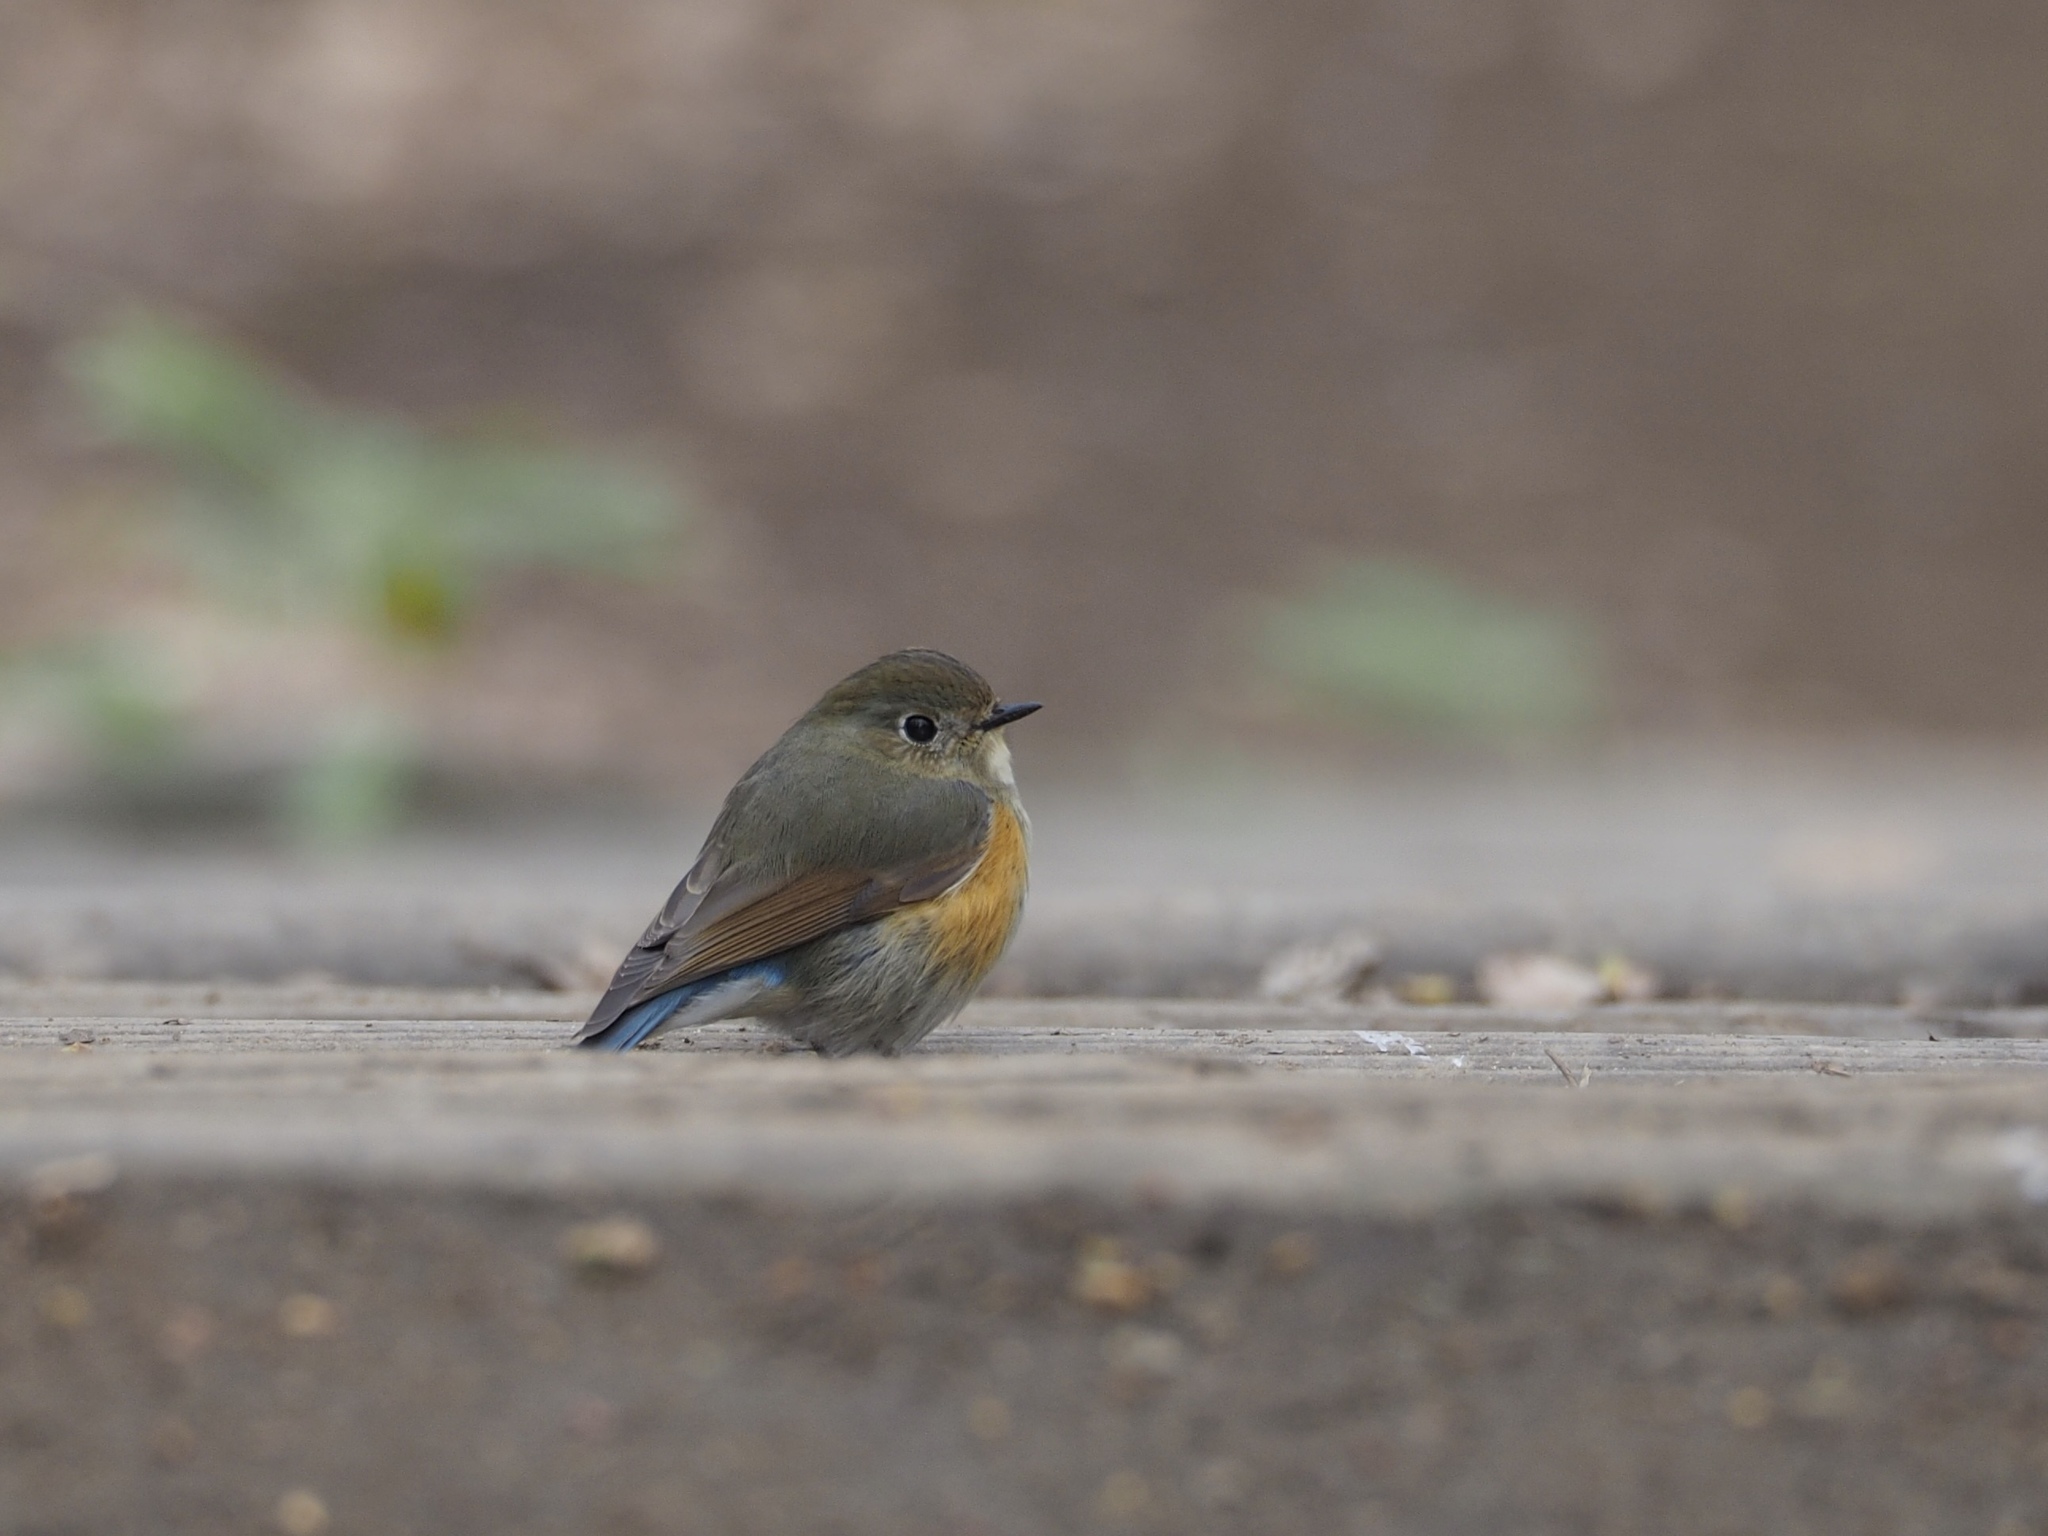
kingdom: Animalia
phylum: Chordata
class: Aves
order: Passeriformes
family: Muscicapidae
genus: Tarsiger
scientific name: Tarsiger cyanurus
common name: Red-flanked bluetail
